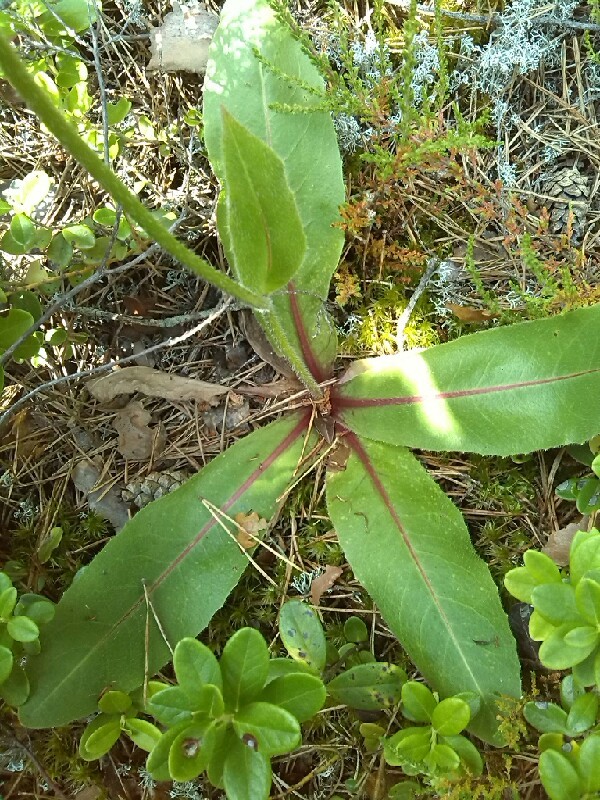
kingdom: Plantae
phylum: Tracheophyta
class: Magnoliopsida
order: Asterales
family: Asteraceae
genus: Trommsdorffia
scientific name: Trommsdorffia maculata
